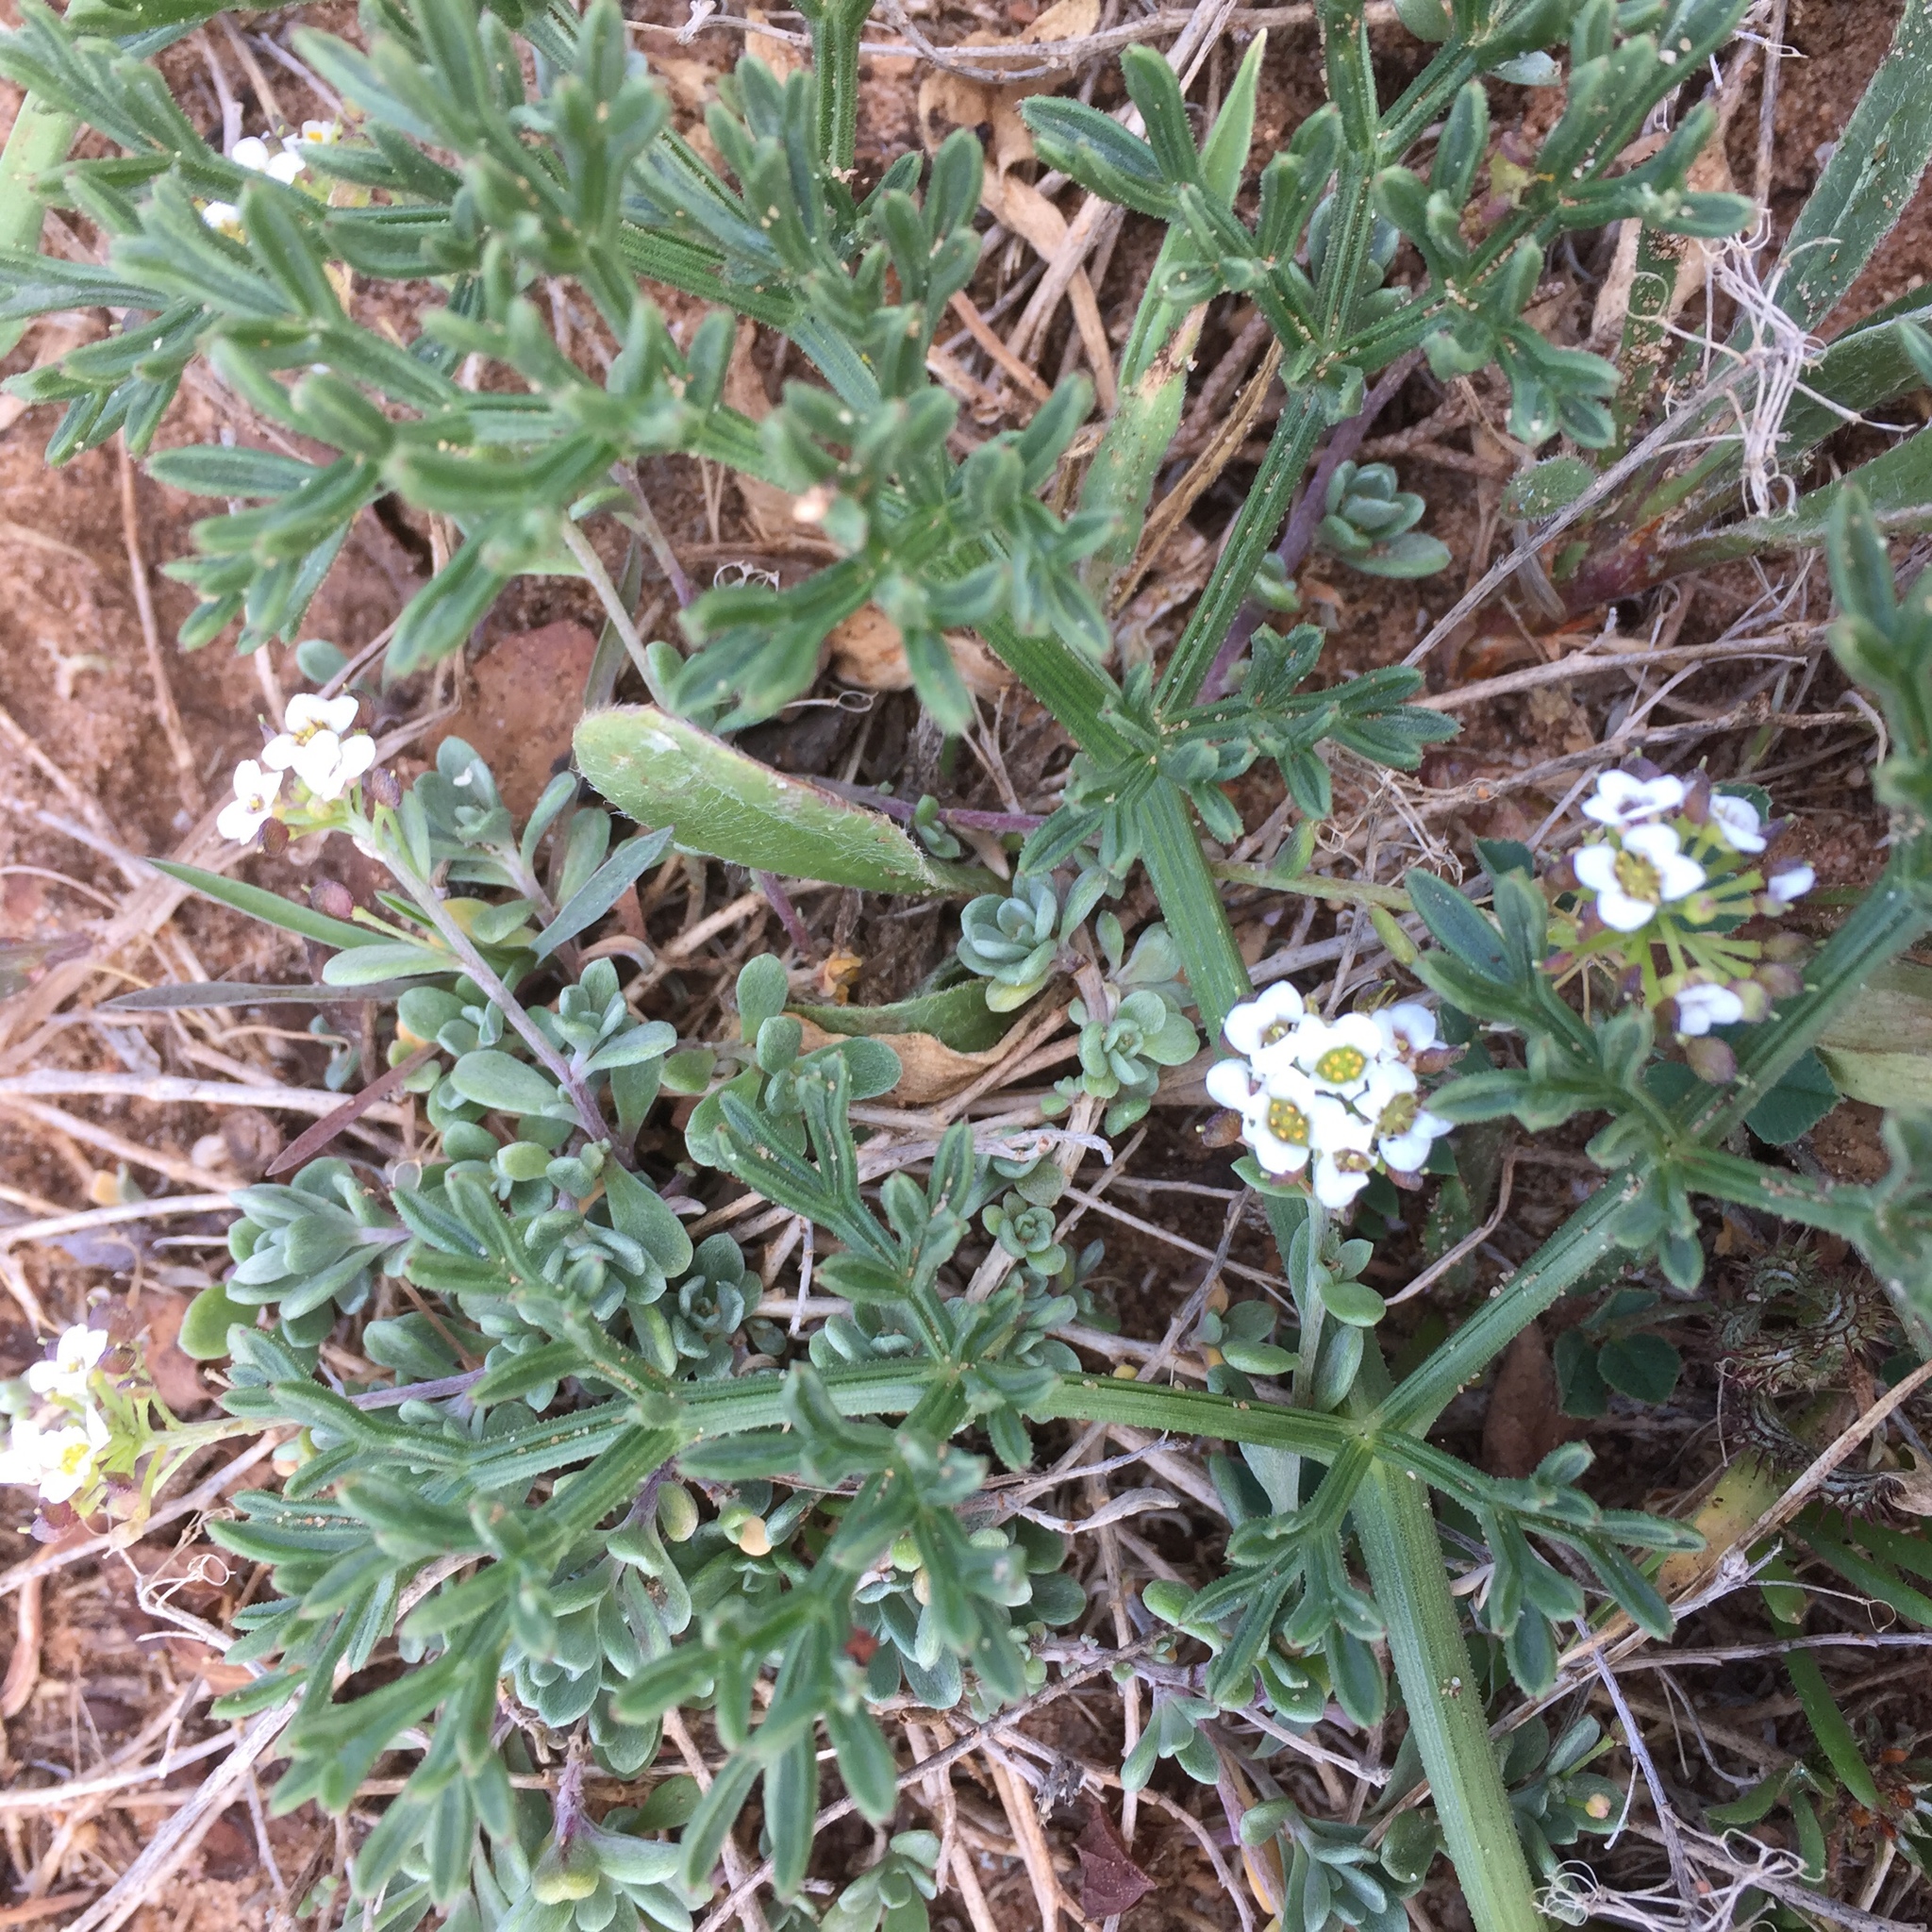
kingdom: Plantae
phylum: Tracheophyta
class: Magnoliopsida
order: Brassicales
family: Brassicaceae
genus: Lobularia
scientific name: Lobularia maritima
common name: Sweet alison
